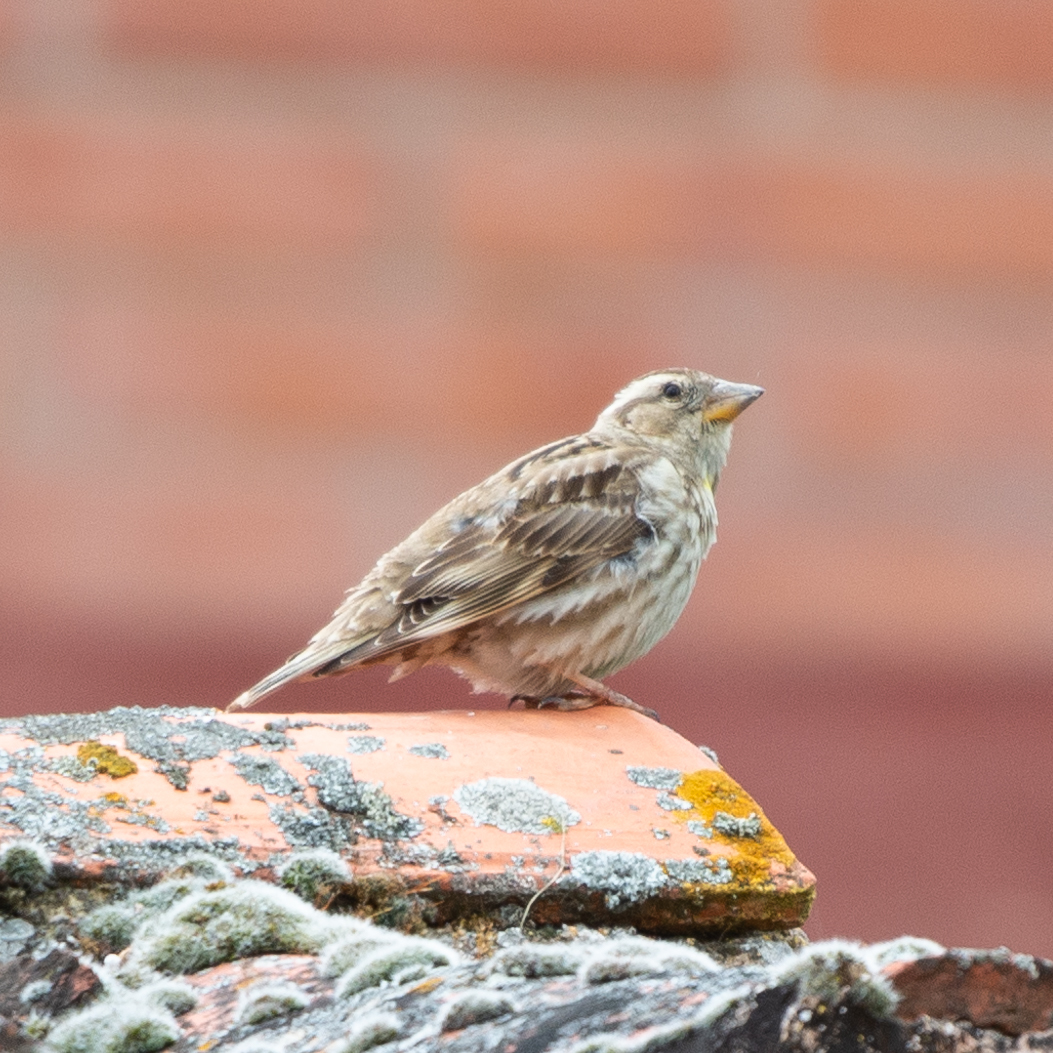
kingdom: Animalia
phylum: Chordata
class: Aves
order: Passeriformes
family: Passeridae
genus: Petronia
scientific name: Petronia petronia
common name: Rock sparrow
